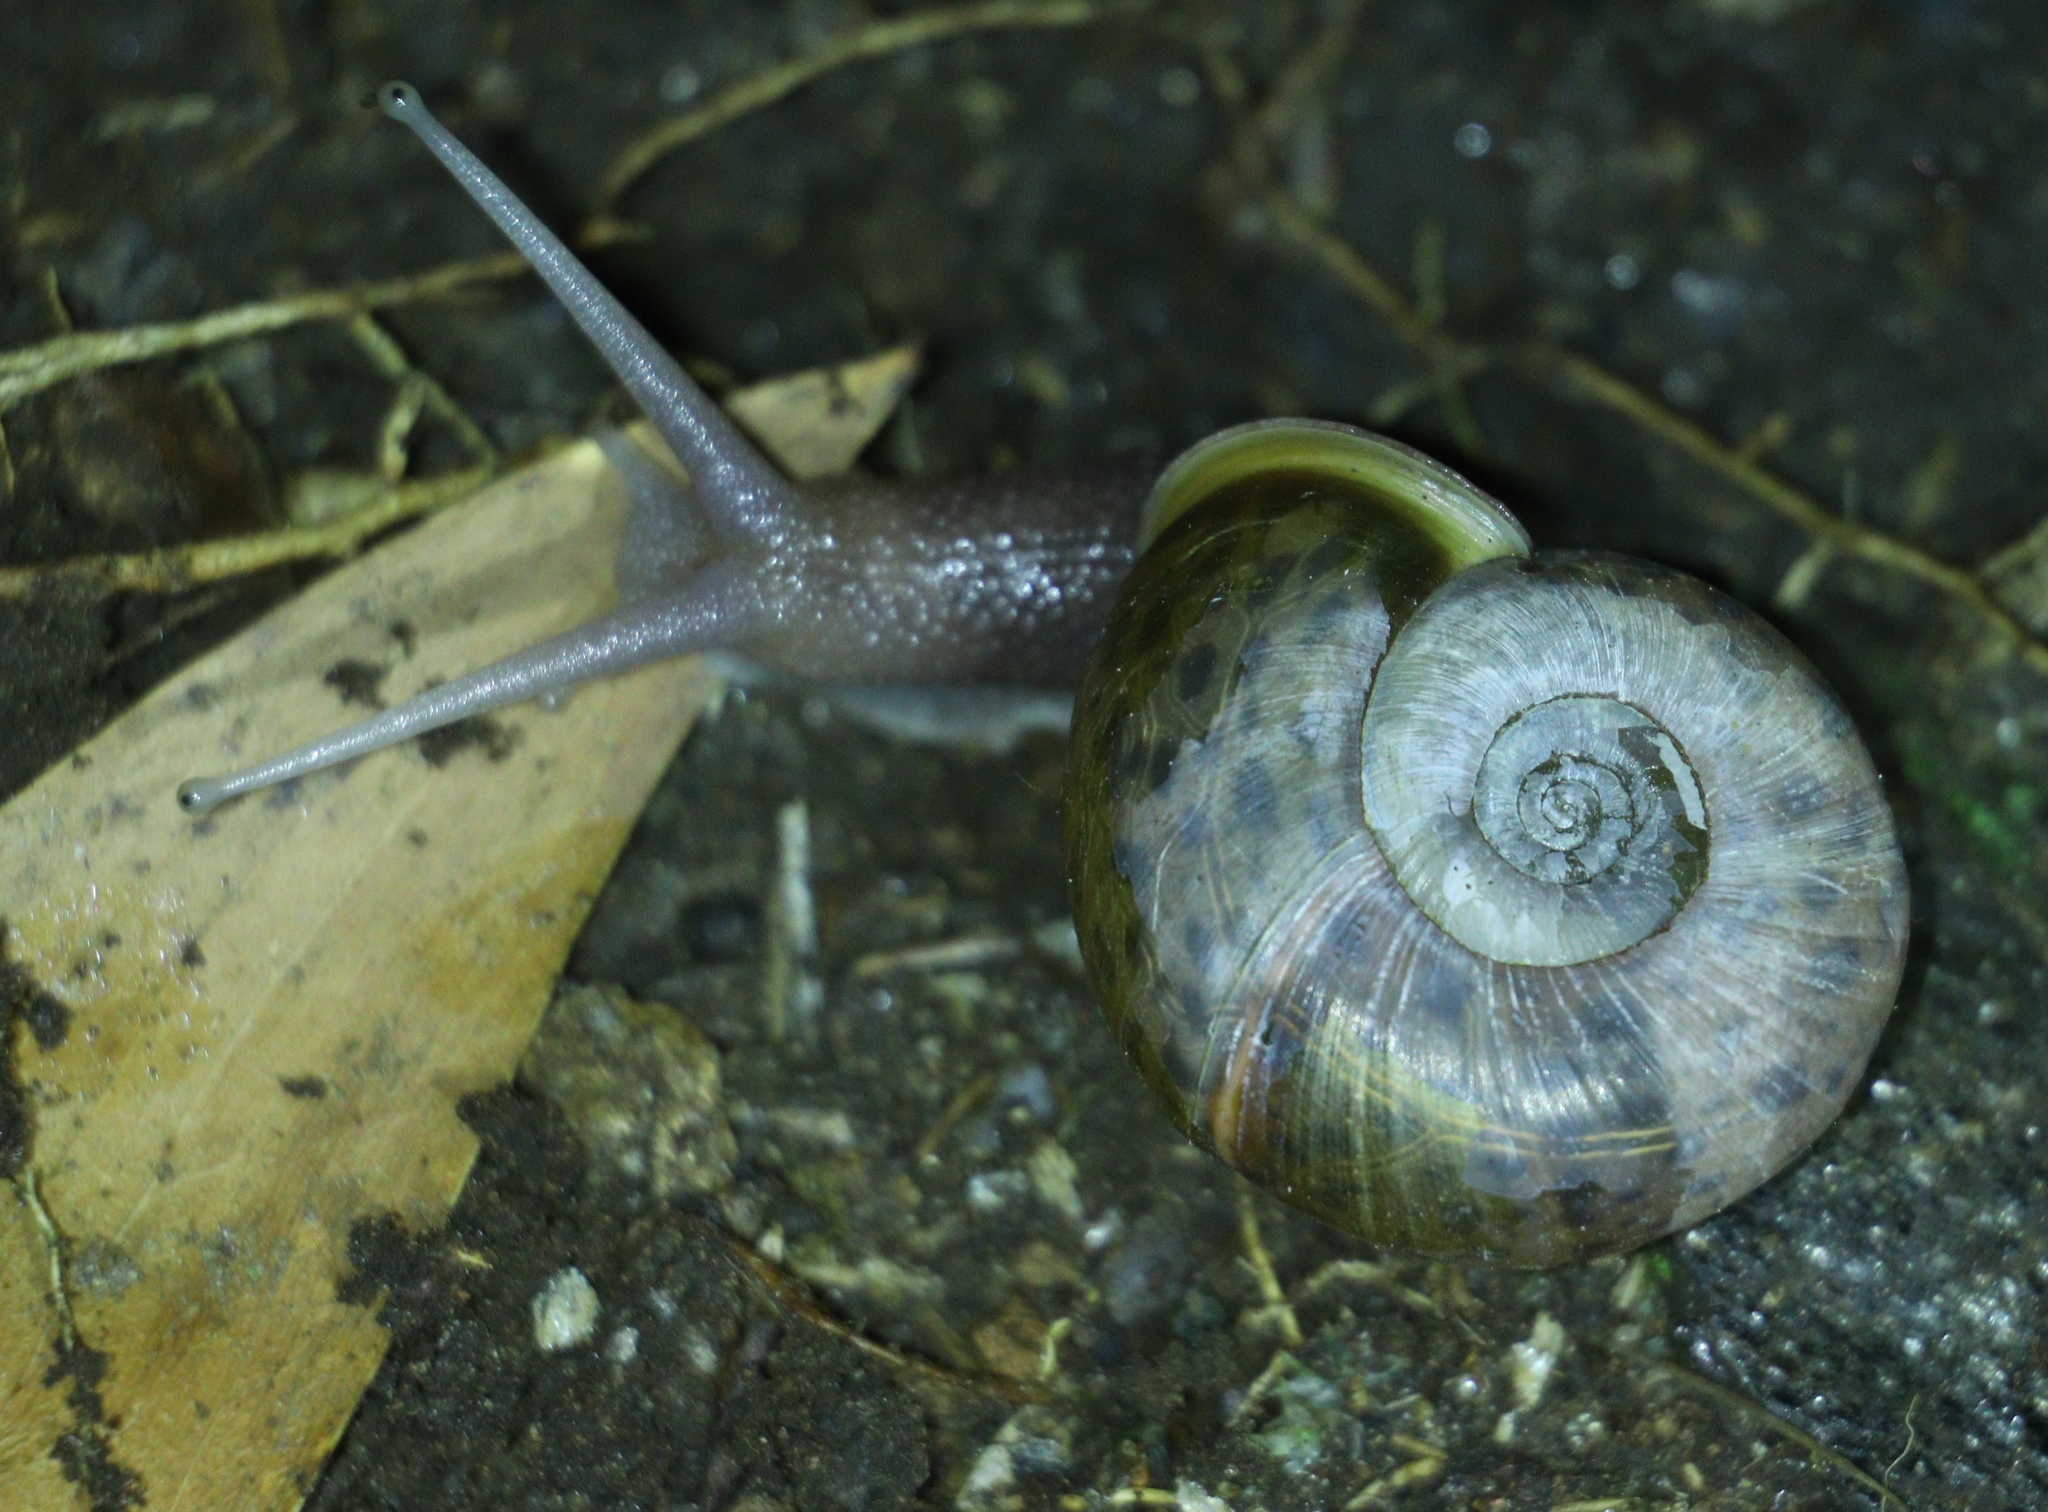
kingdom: Animalia
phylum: Mollusca
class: Gastropoda
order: Stylommatophora
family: Elonidae
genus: Elona
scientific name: Elona quimperiana
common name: Quimper snail
